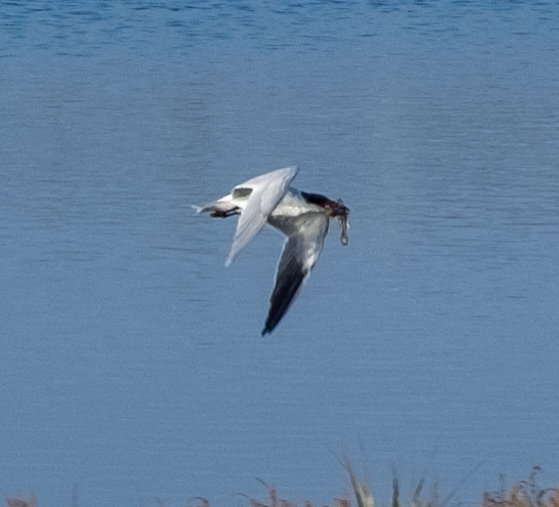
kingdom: Animalia
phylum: Chordata
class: Aves
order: Charadriiformes
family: Laridae
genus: Hydroprogne
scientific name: Hydroprogne caspia
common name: Caspian tern
